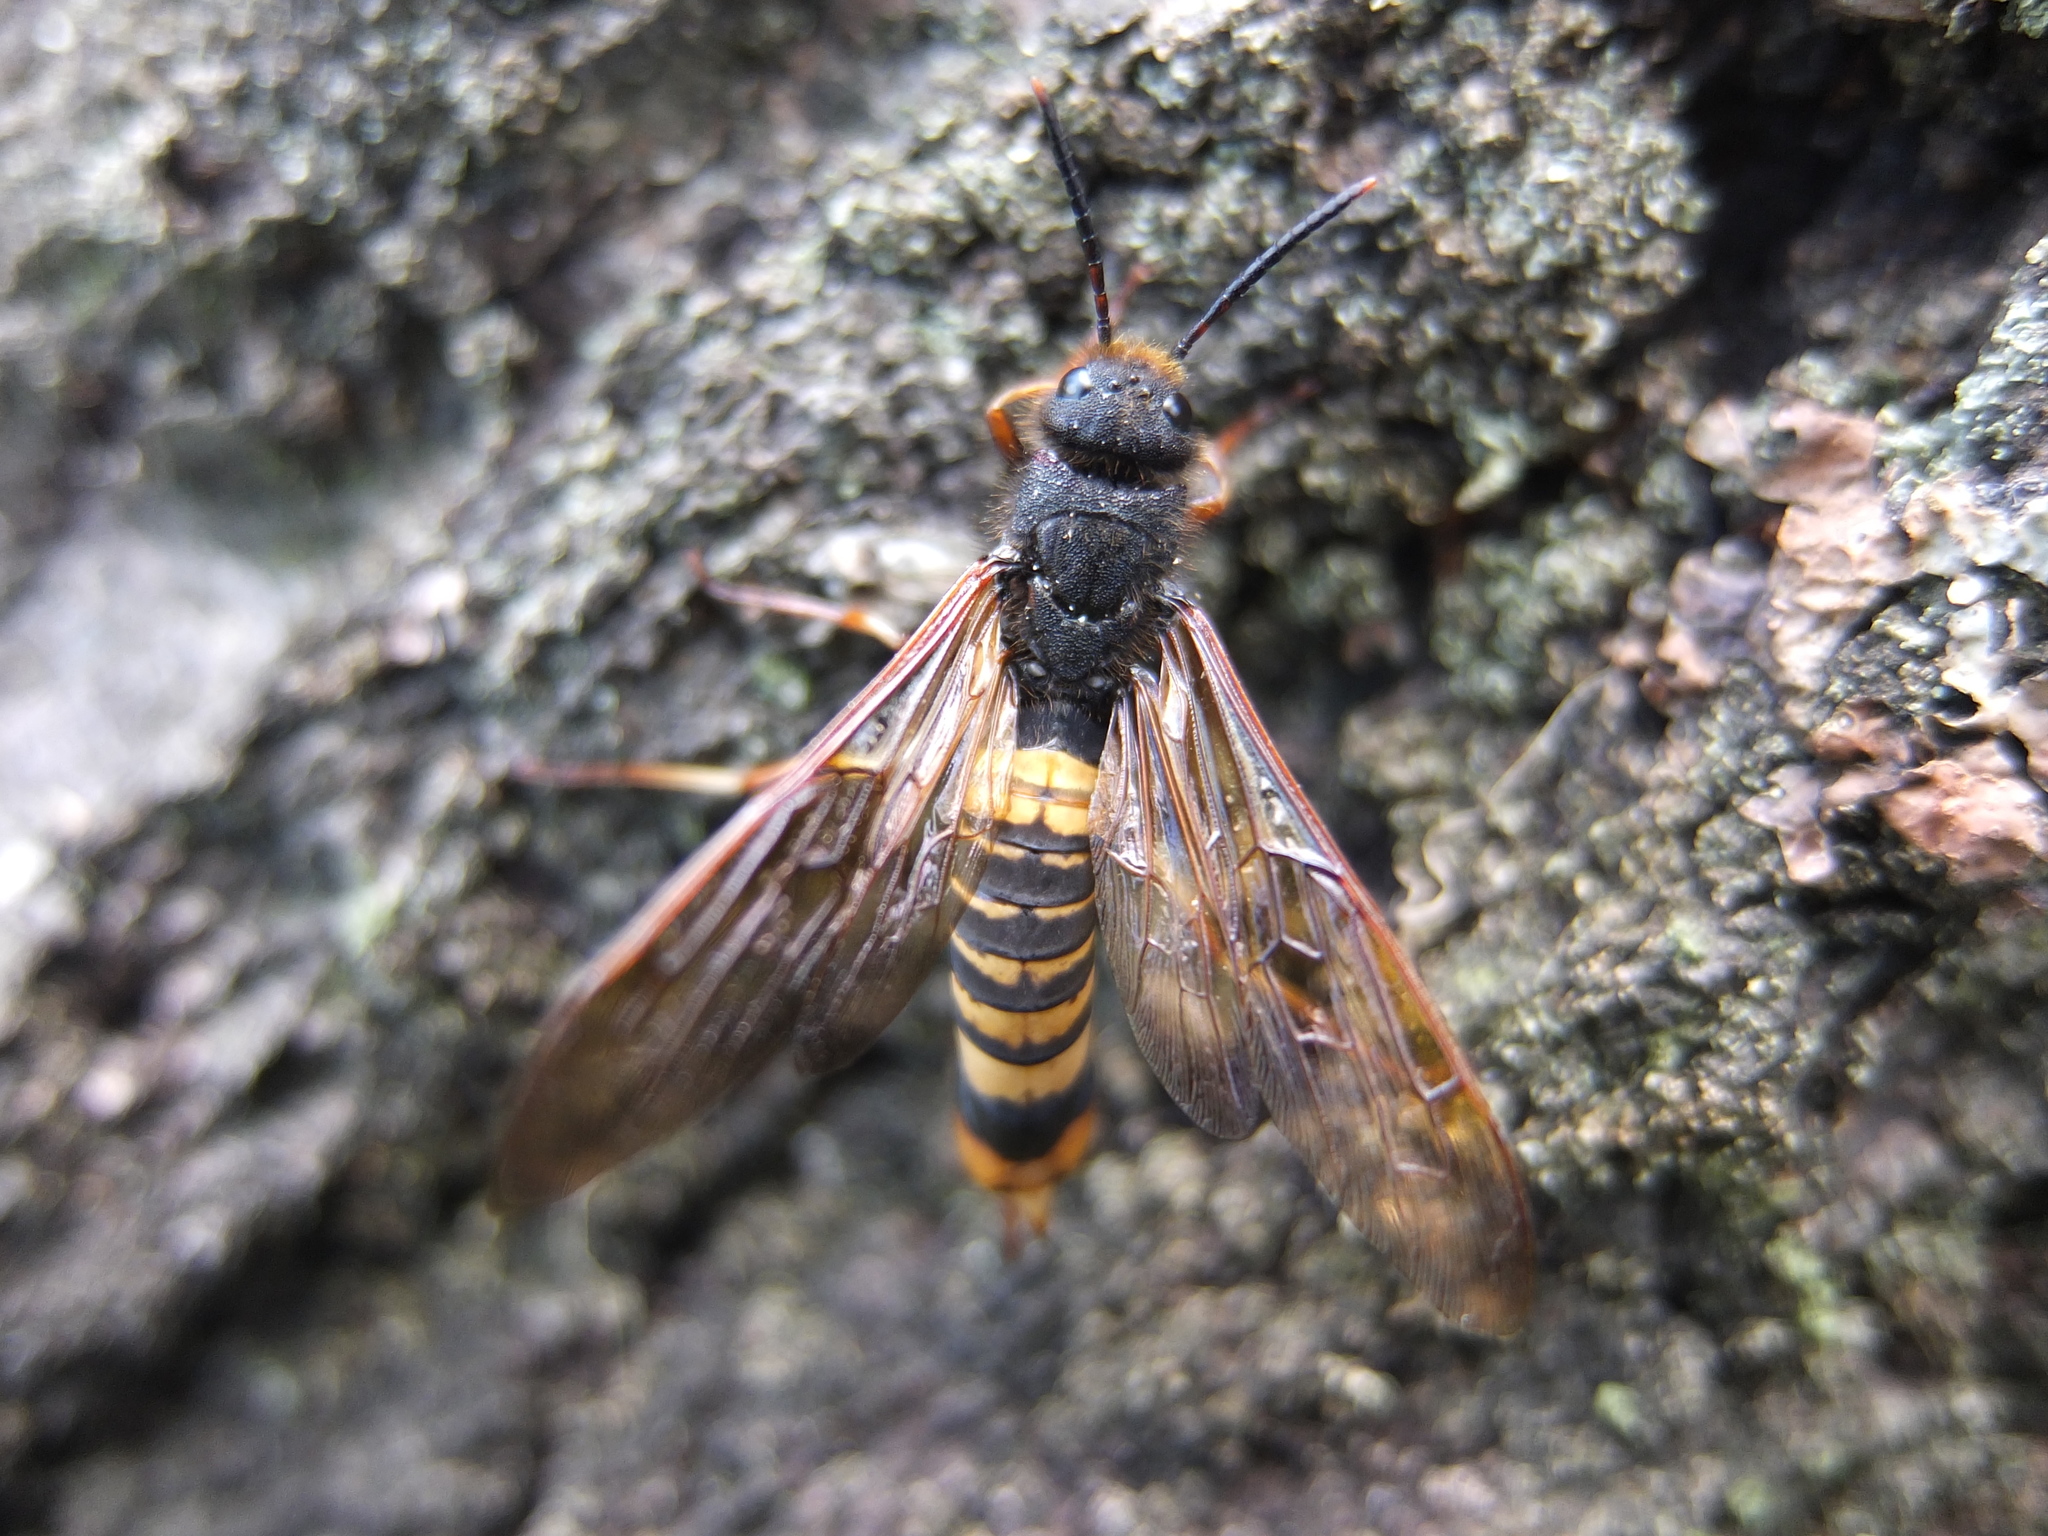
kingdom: Animalia
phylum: Arthropoda
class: Insecta
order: Hymenoptera
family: Siricidae
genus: Tremex
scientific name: Tremex fuscicornis
